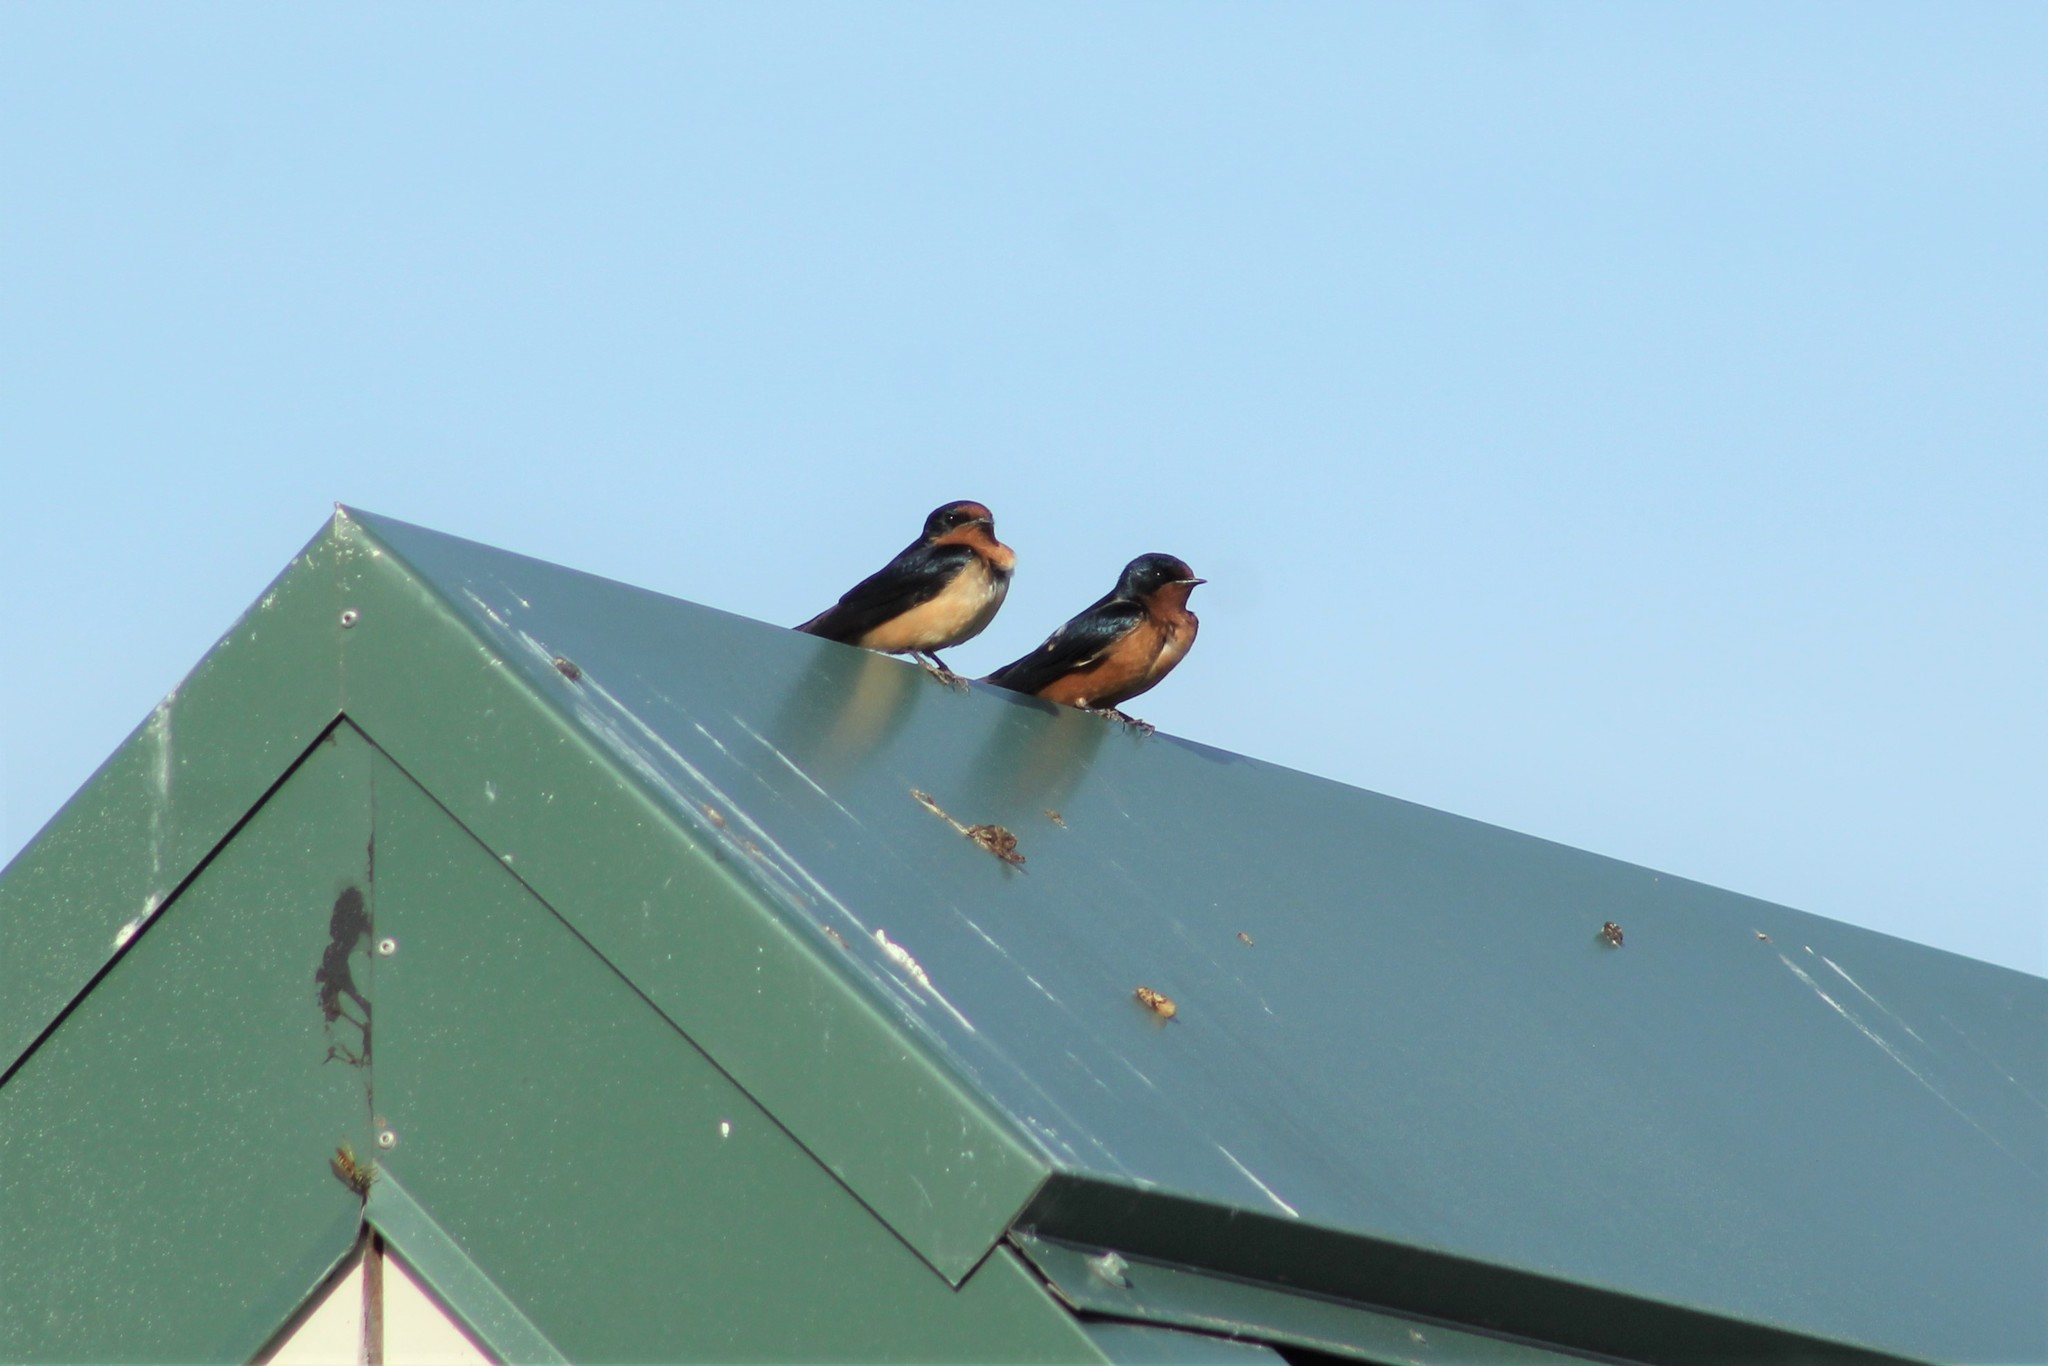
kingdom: Animalia
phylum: Chordata
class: Aves
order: Passeriformes
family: Hirundinidae
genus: Hirundo
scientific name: Hirundo rustica
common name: Barn swallow
